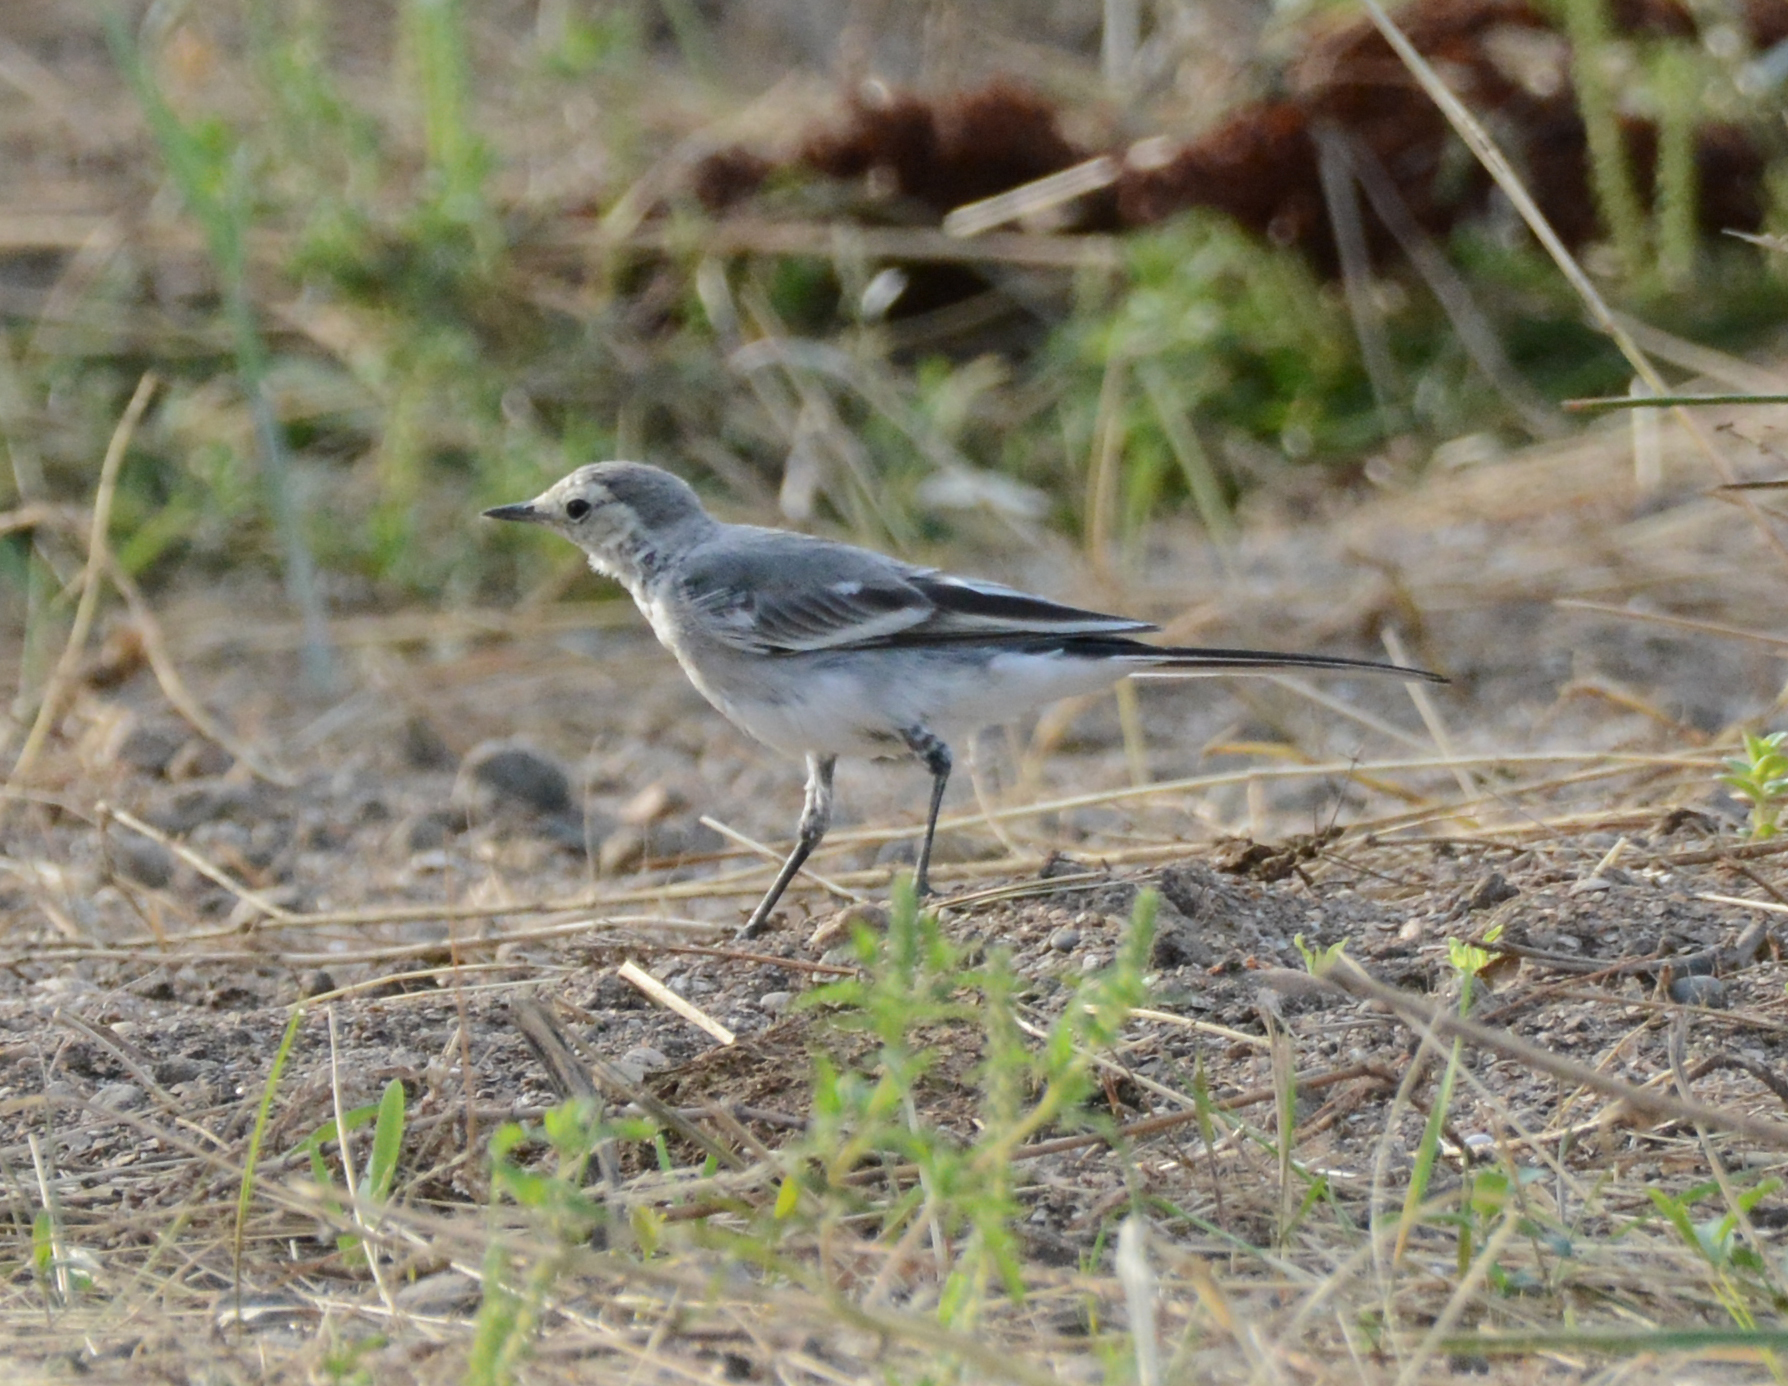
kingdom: Animalia
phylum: Chordata
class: Aves
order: Passeriformes
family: Motacillidae
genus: Motacilla
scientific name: Motacilla alba
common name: White wagtail
